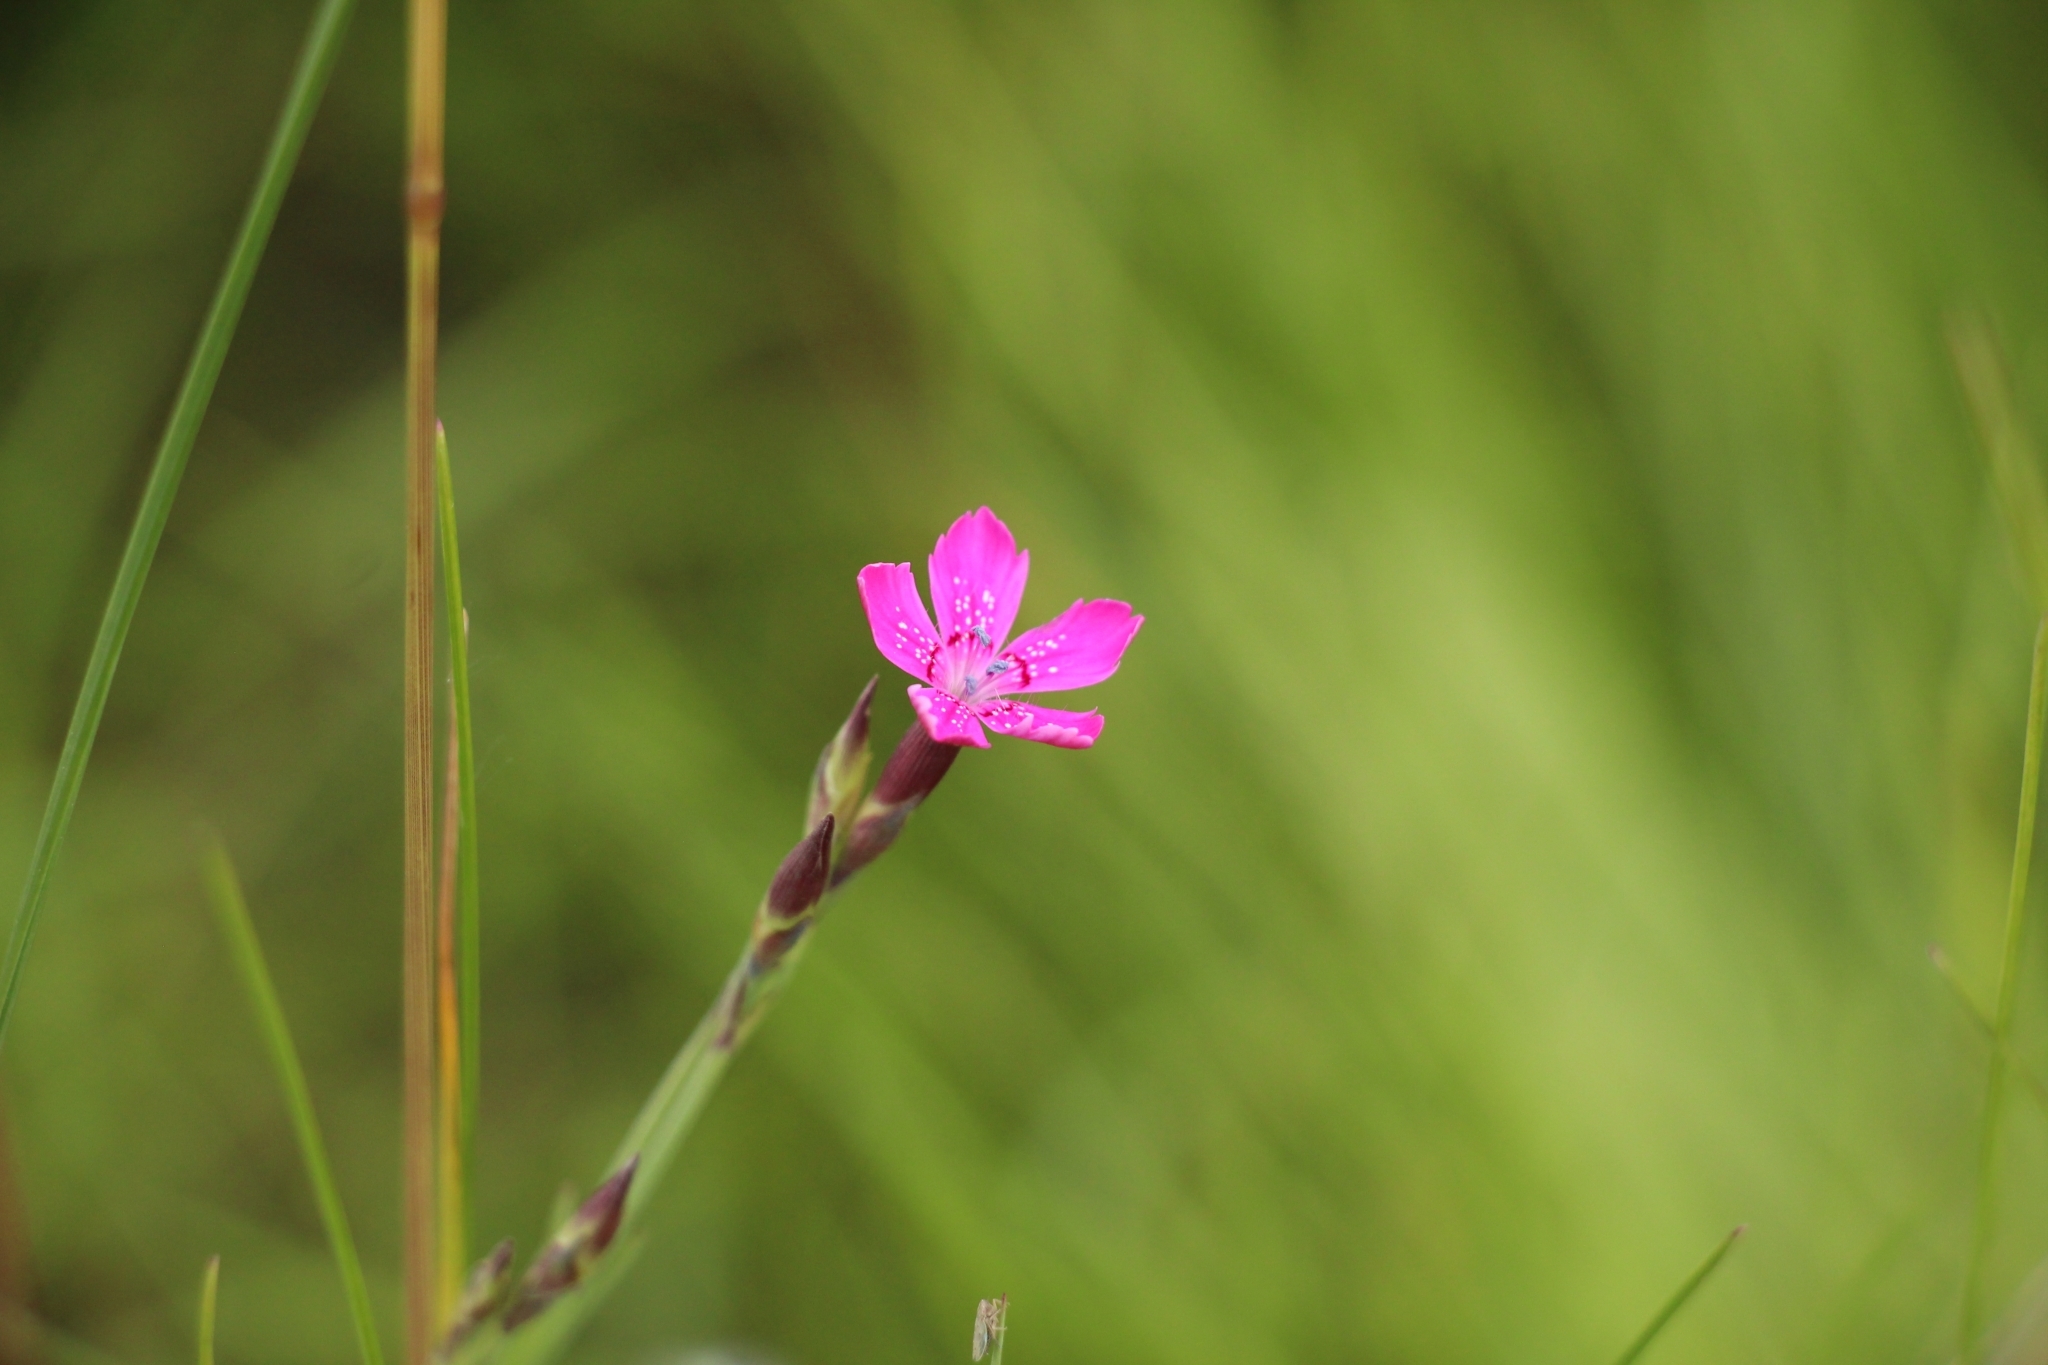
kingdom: Plantae
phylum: Tracheophyta
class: Magnoliopsida
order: Caryophyllales
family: Caryophyllaceae
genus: Dianthus
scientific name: Dianthus deltoides
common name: Maiden pink
